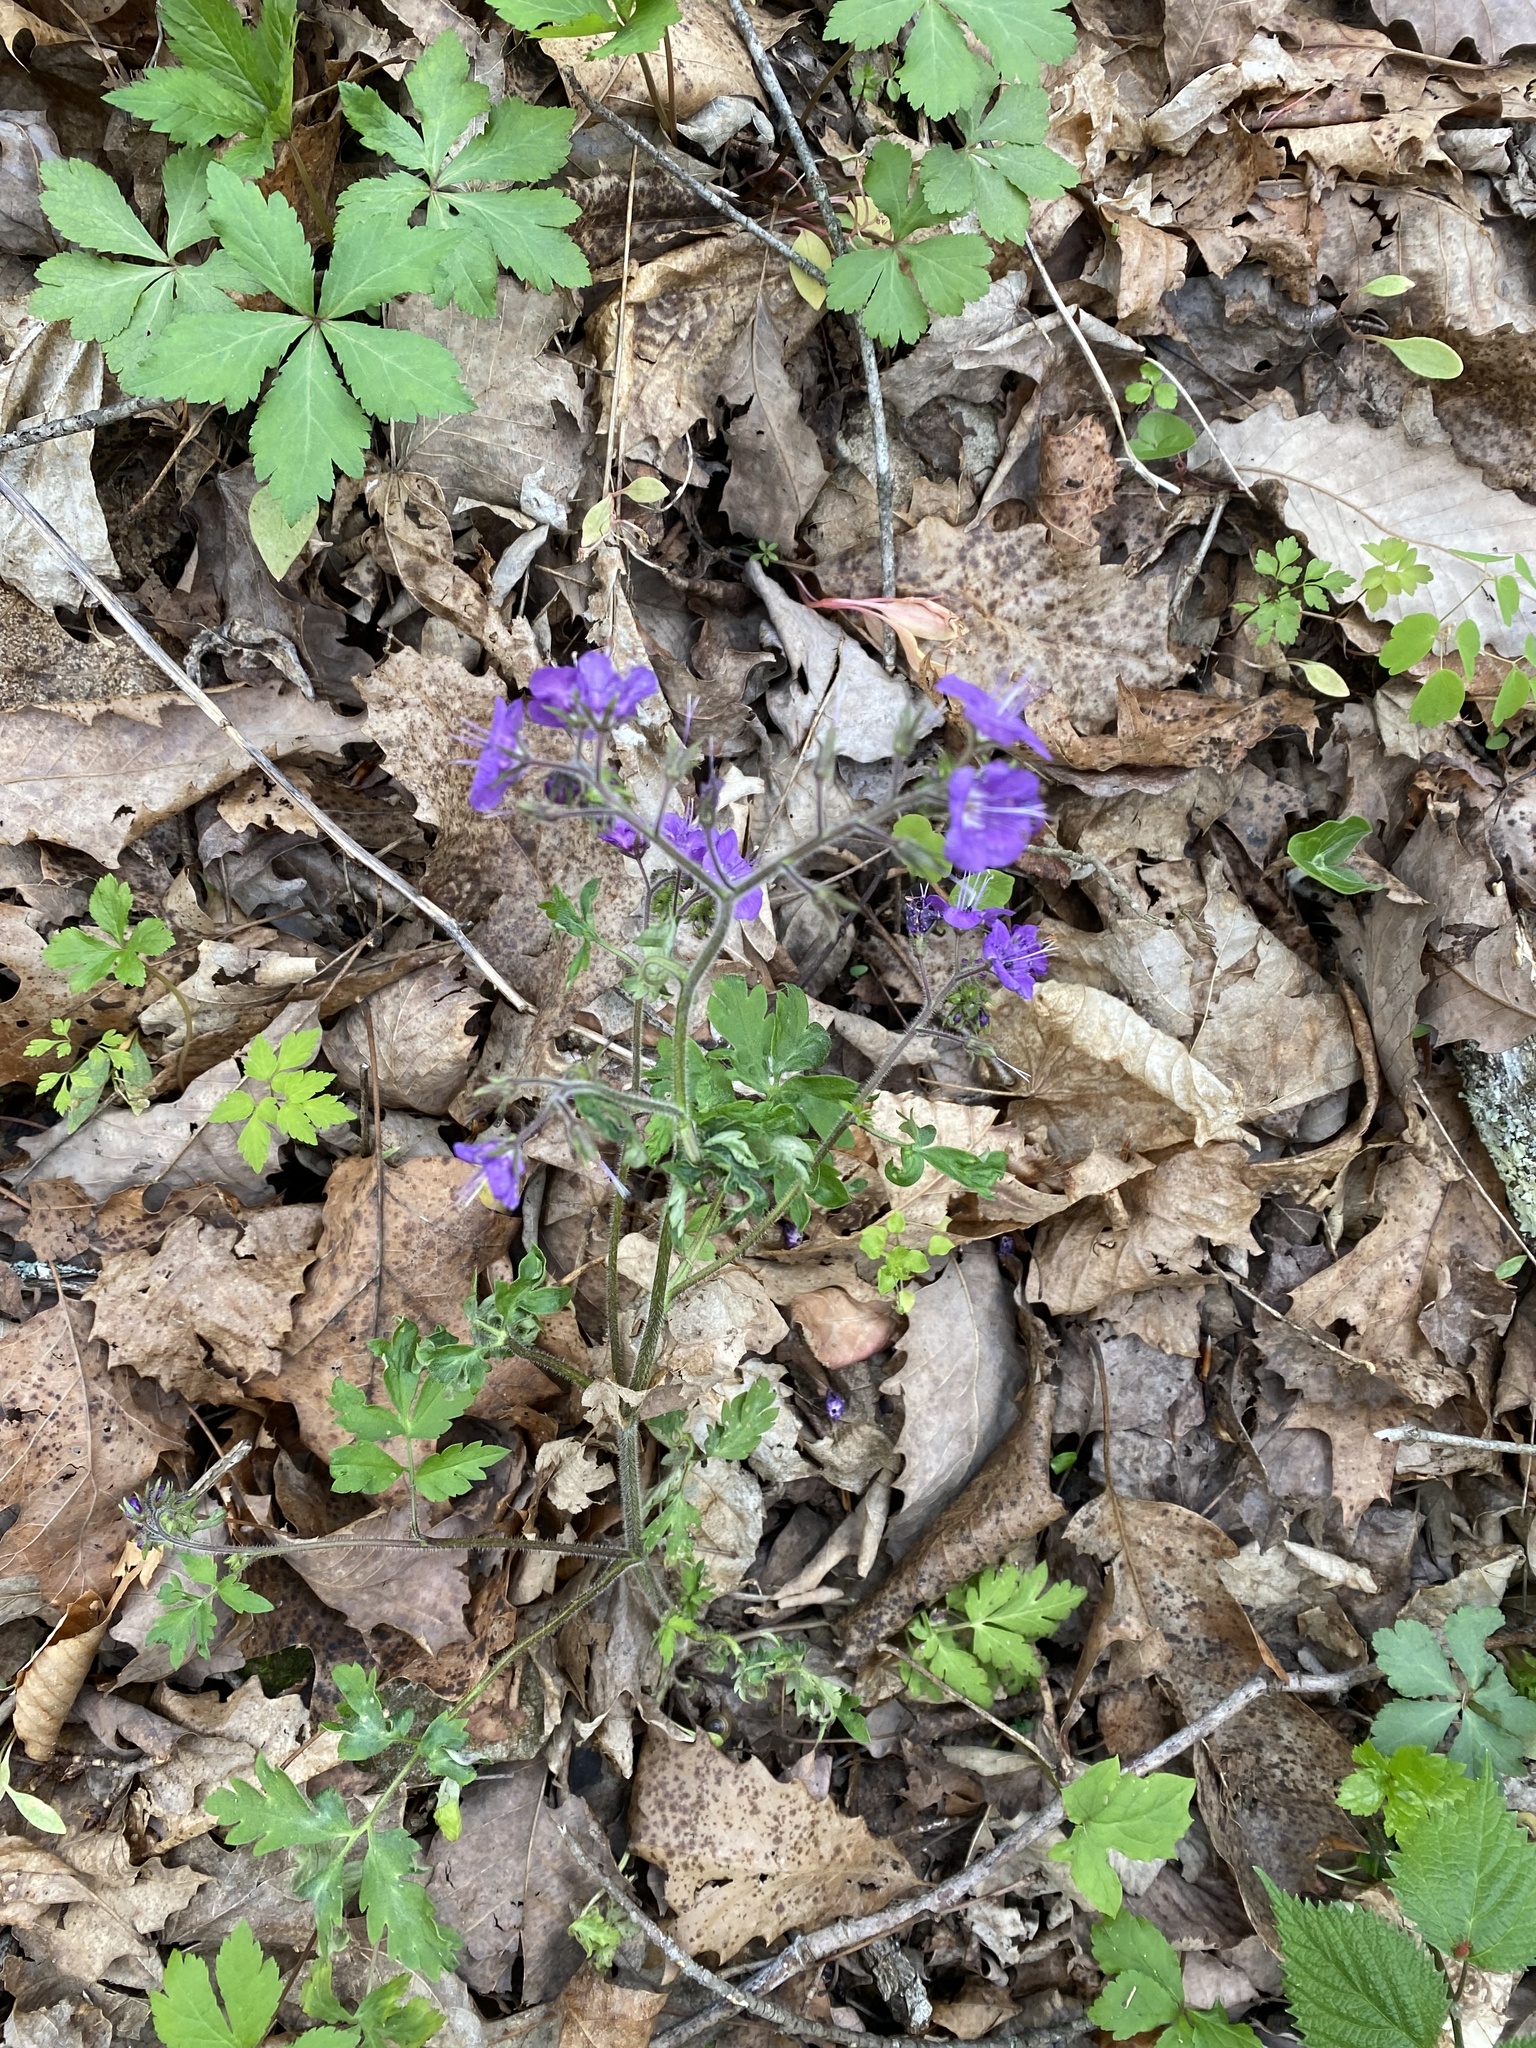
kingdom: Plantae
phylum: Tracheophyta
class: Magnoliopsida
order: Boraginales
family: Hydrophyllaceae
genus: Phacelia
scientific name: Phacelia bipinnatifida
